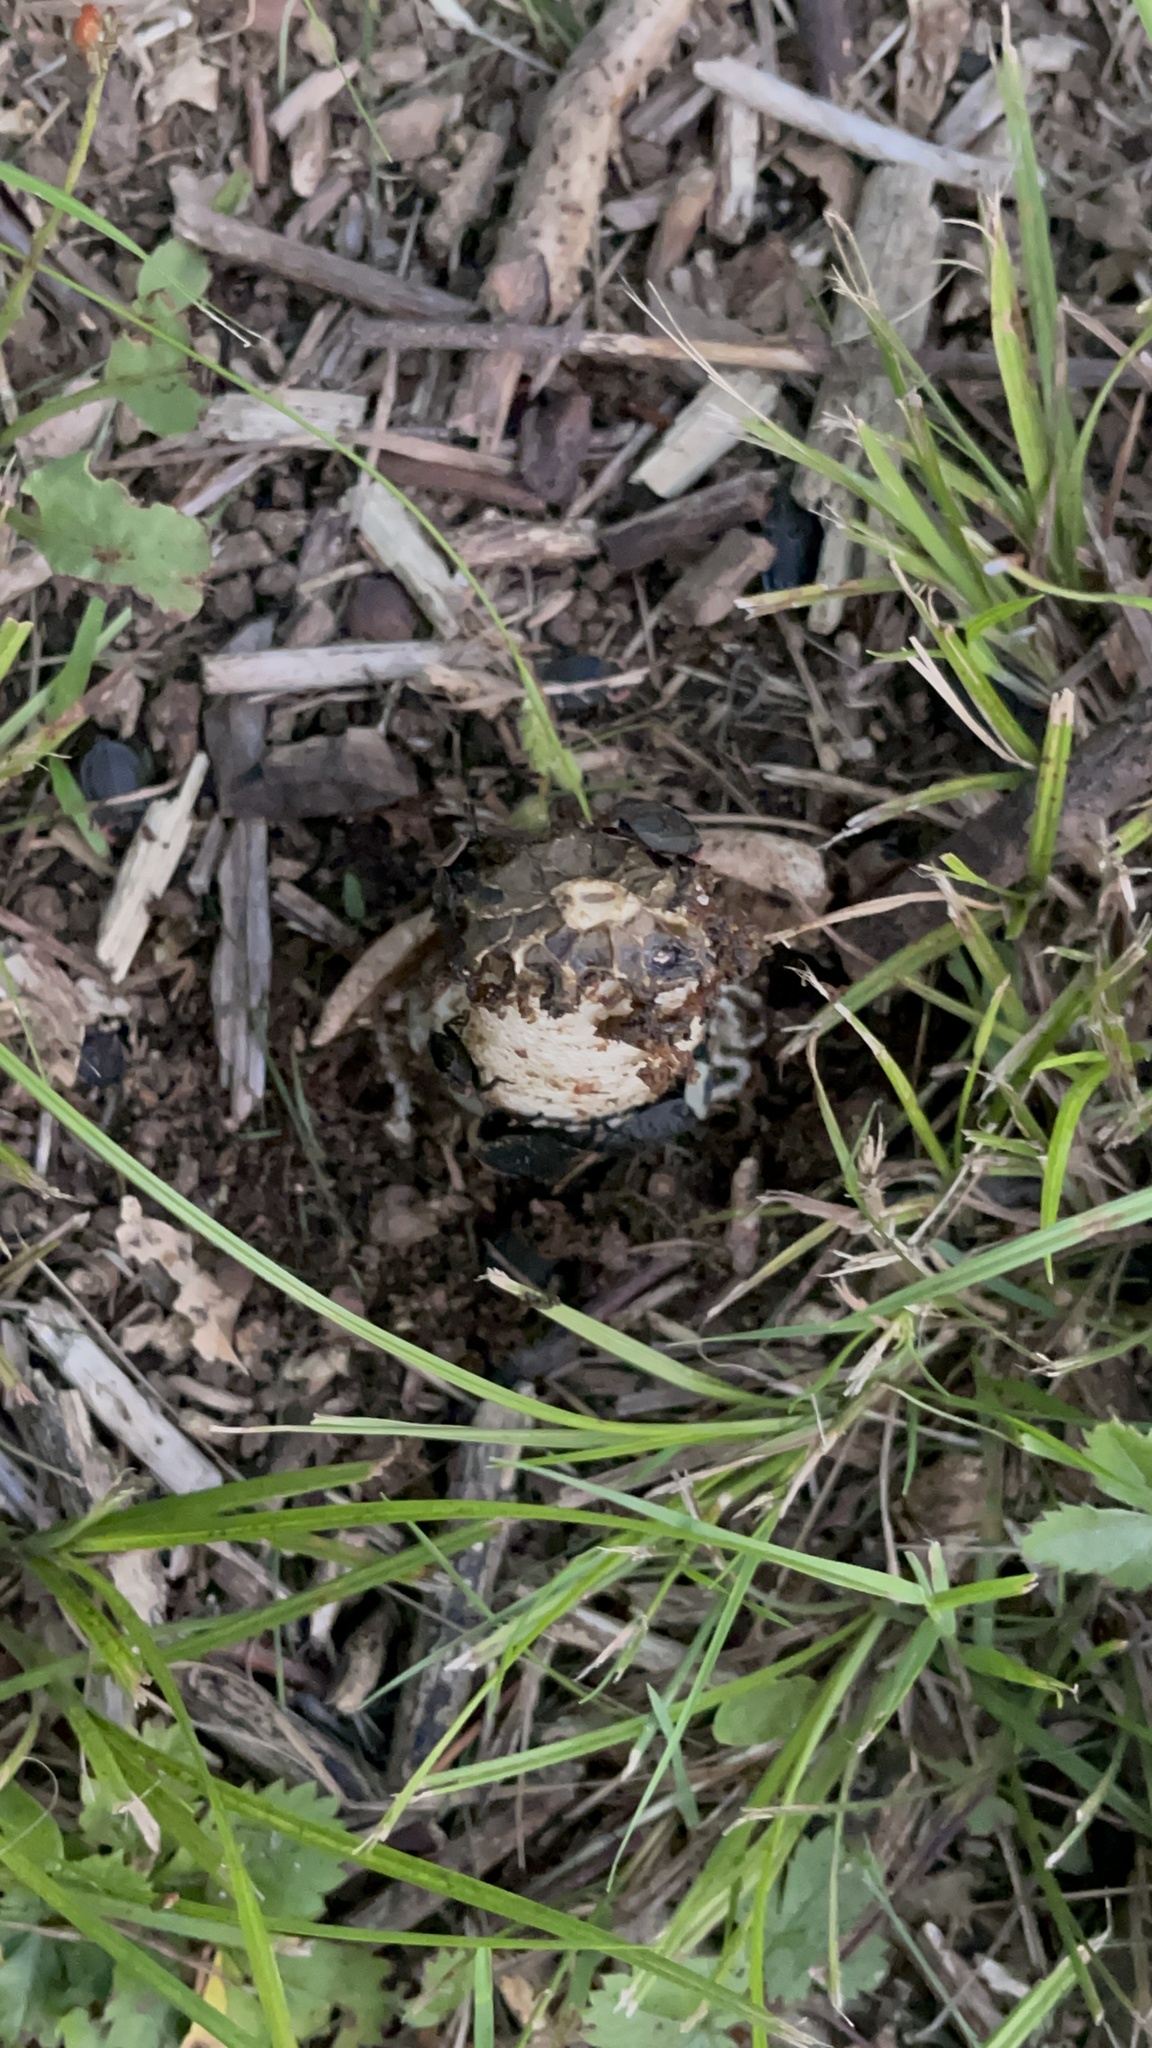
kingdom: Animalia
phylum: Arthropoda
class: Insecta
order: Coleoptera
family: Staphylinidae
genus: Necrophila
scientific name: Necrophila americana
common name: American carrion beetle
